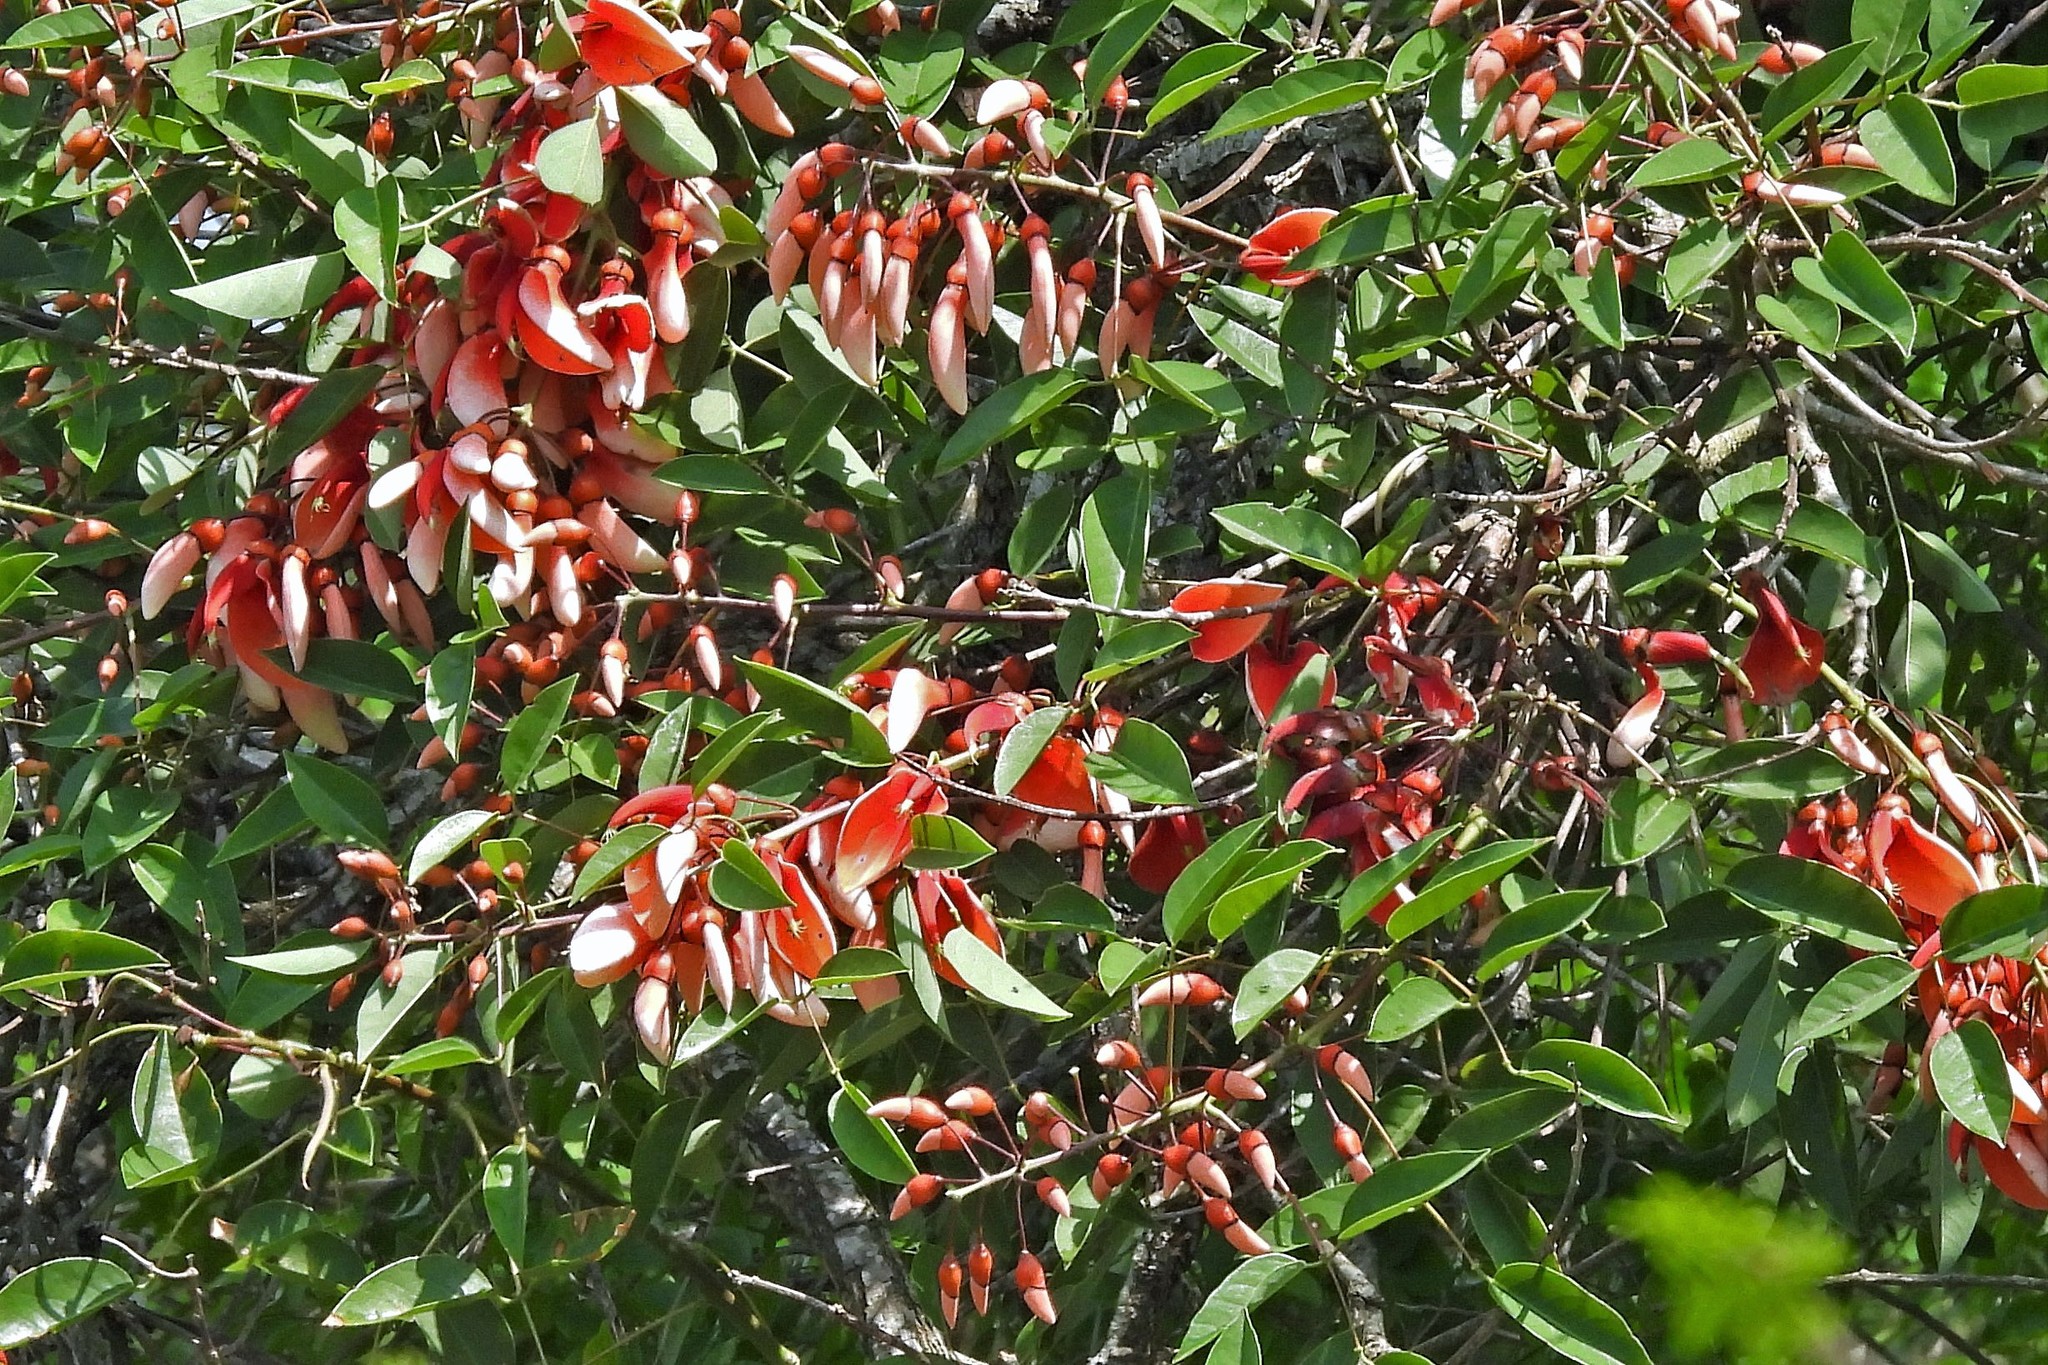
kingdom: Plantae
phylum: Tracheophyta
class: Magnoliopsida
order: Fabales
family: Fabaceae
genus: Erythrina
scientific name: Erythrina crista-galli
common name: Cockspur coral tree
